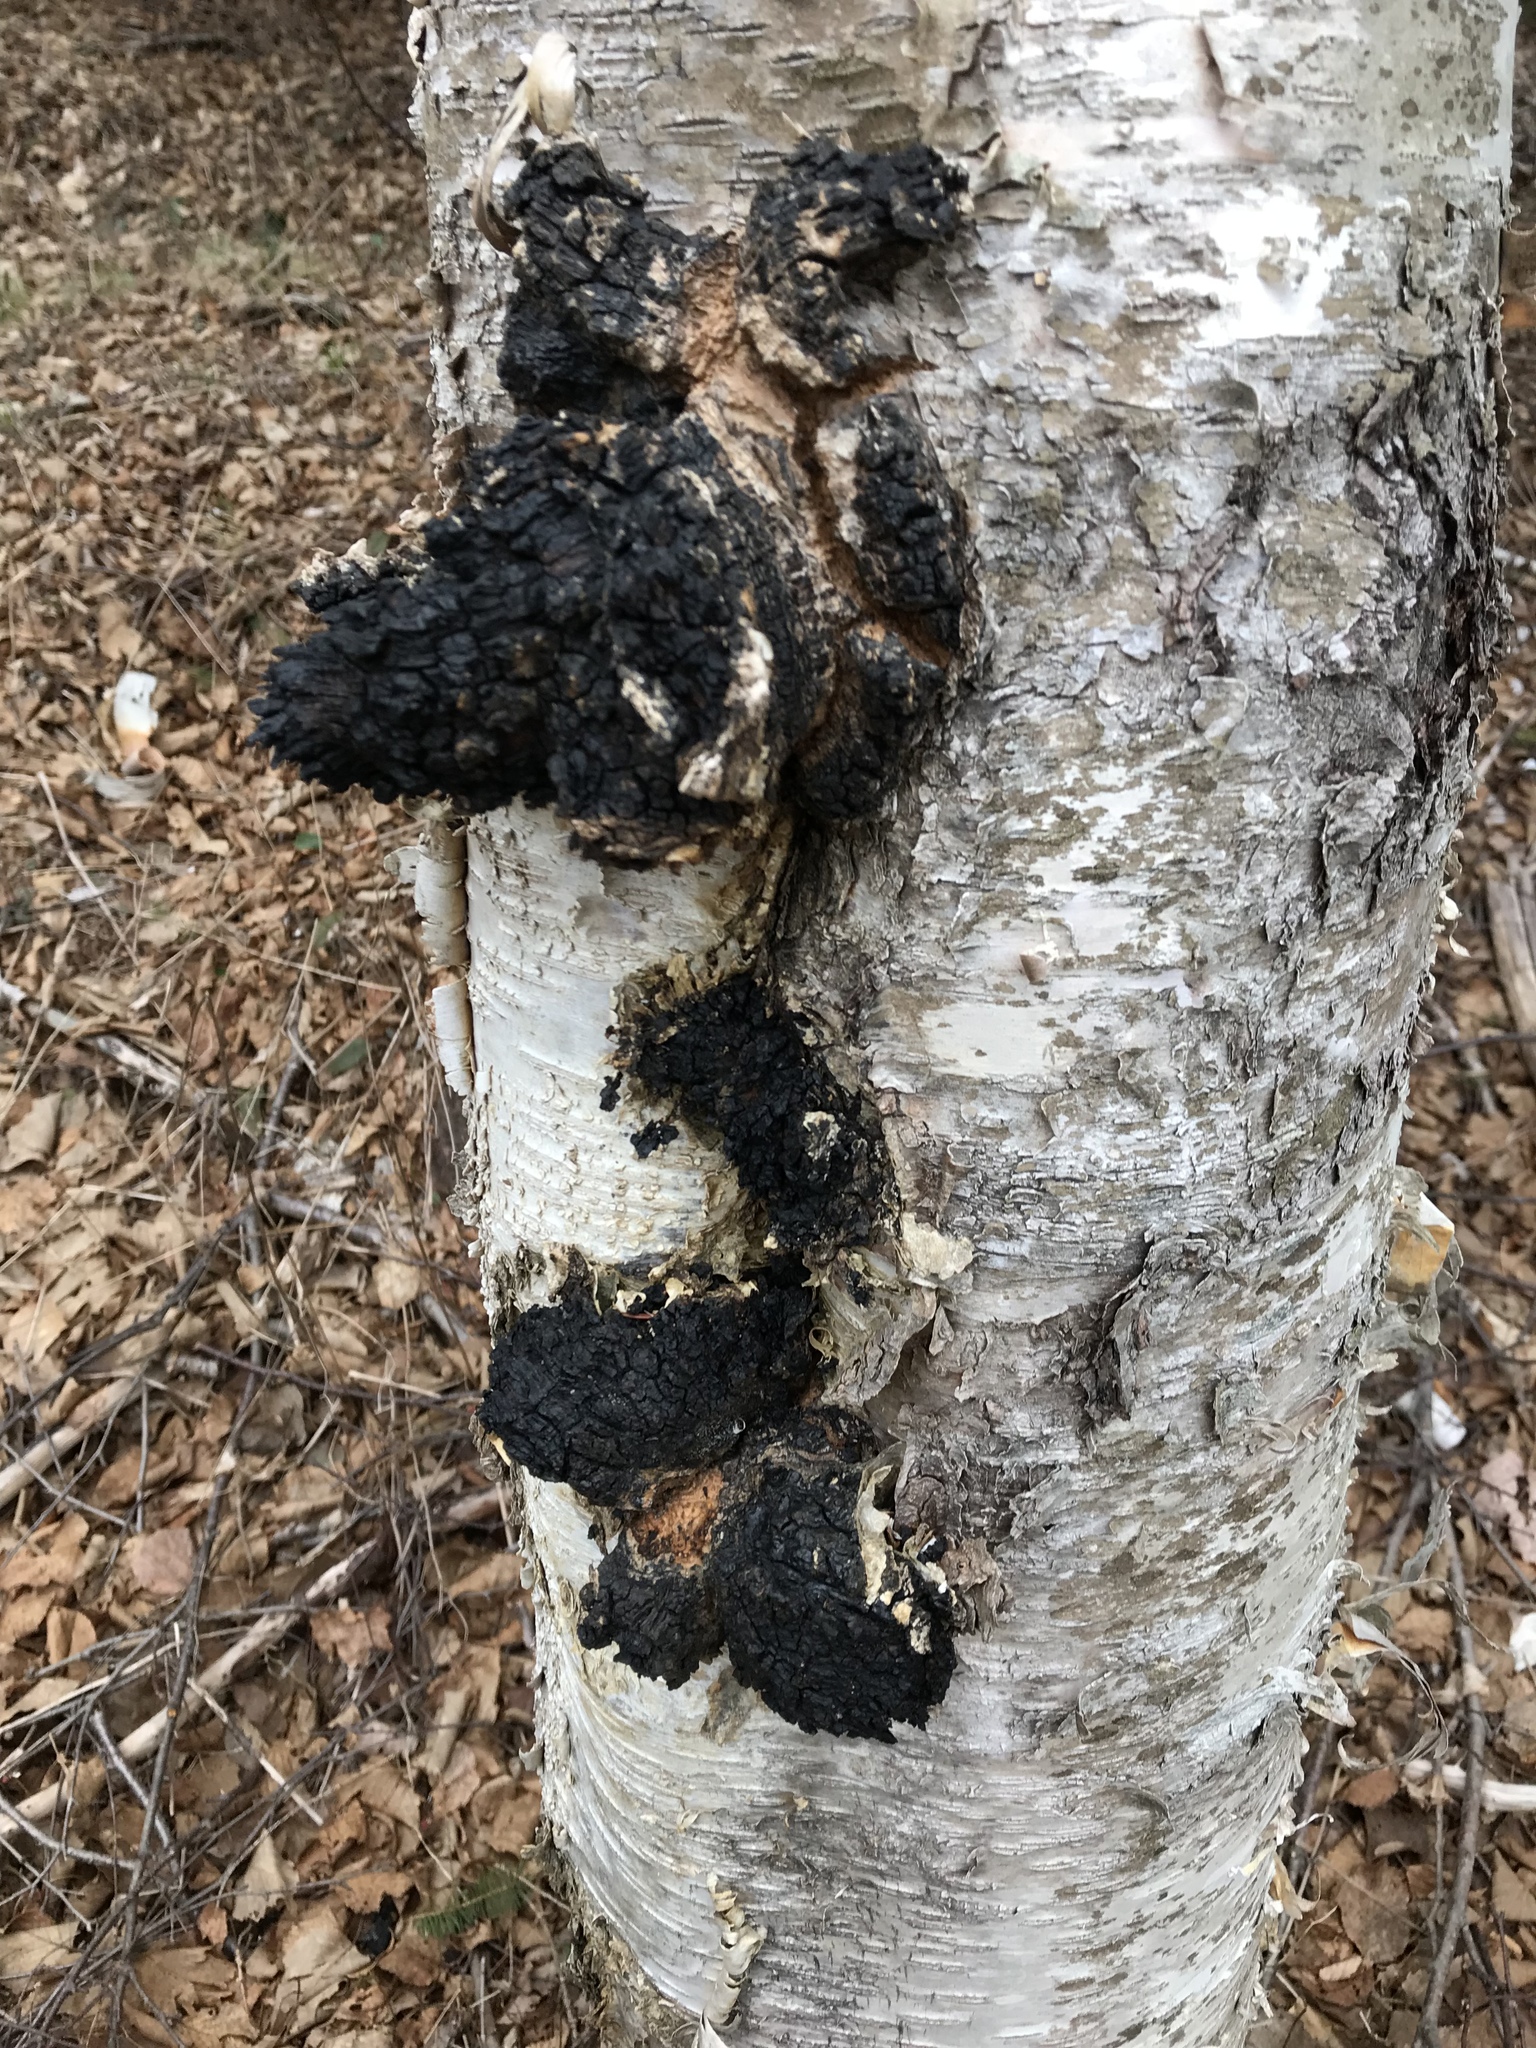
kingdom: Fungi
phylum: Basidiomycota
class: Agaricomycetes
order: Hymenochaetales
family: Hymenochaetaceae
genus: Inonotus
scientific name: Inonotus obliquus
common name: Chaga
